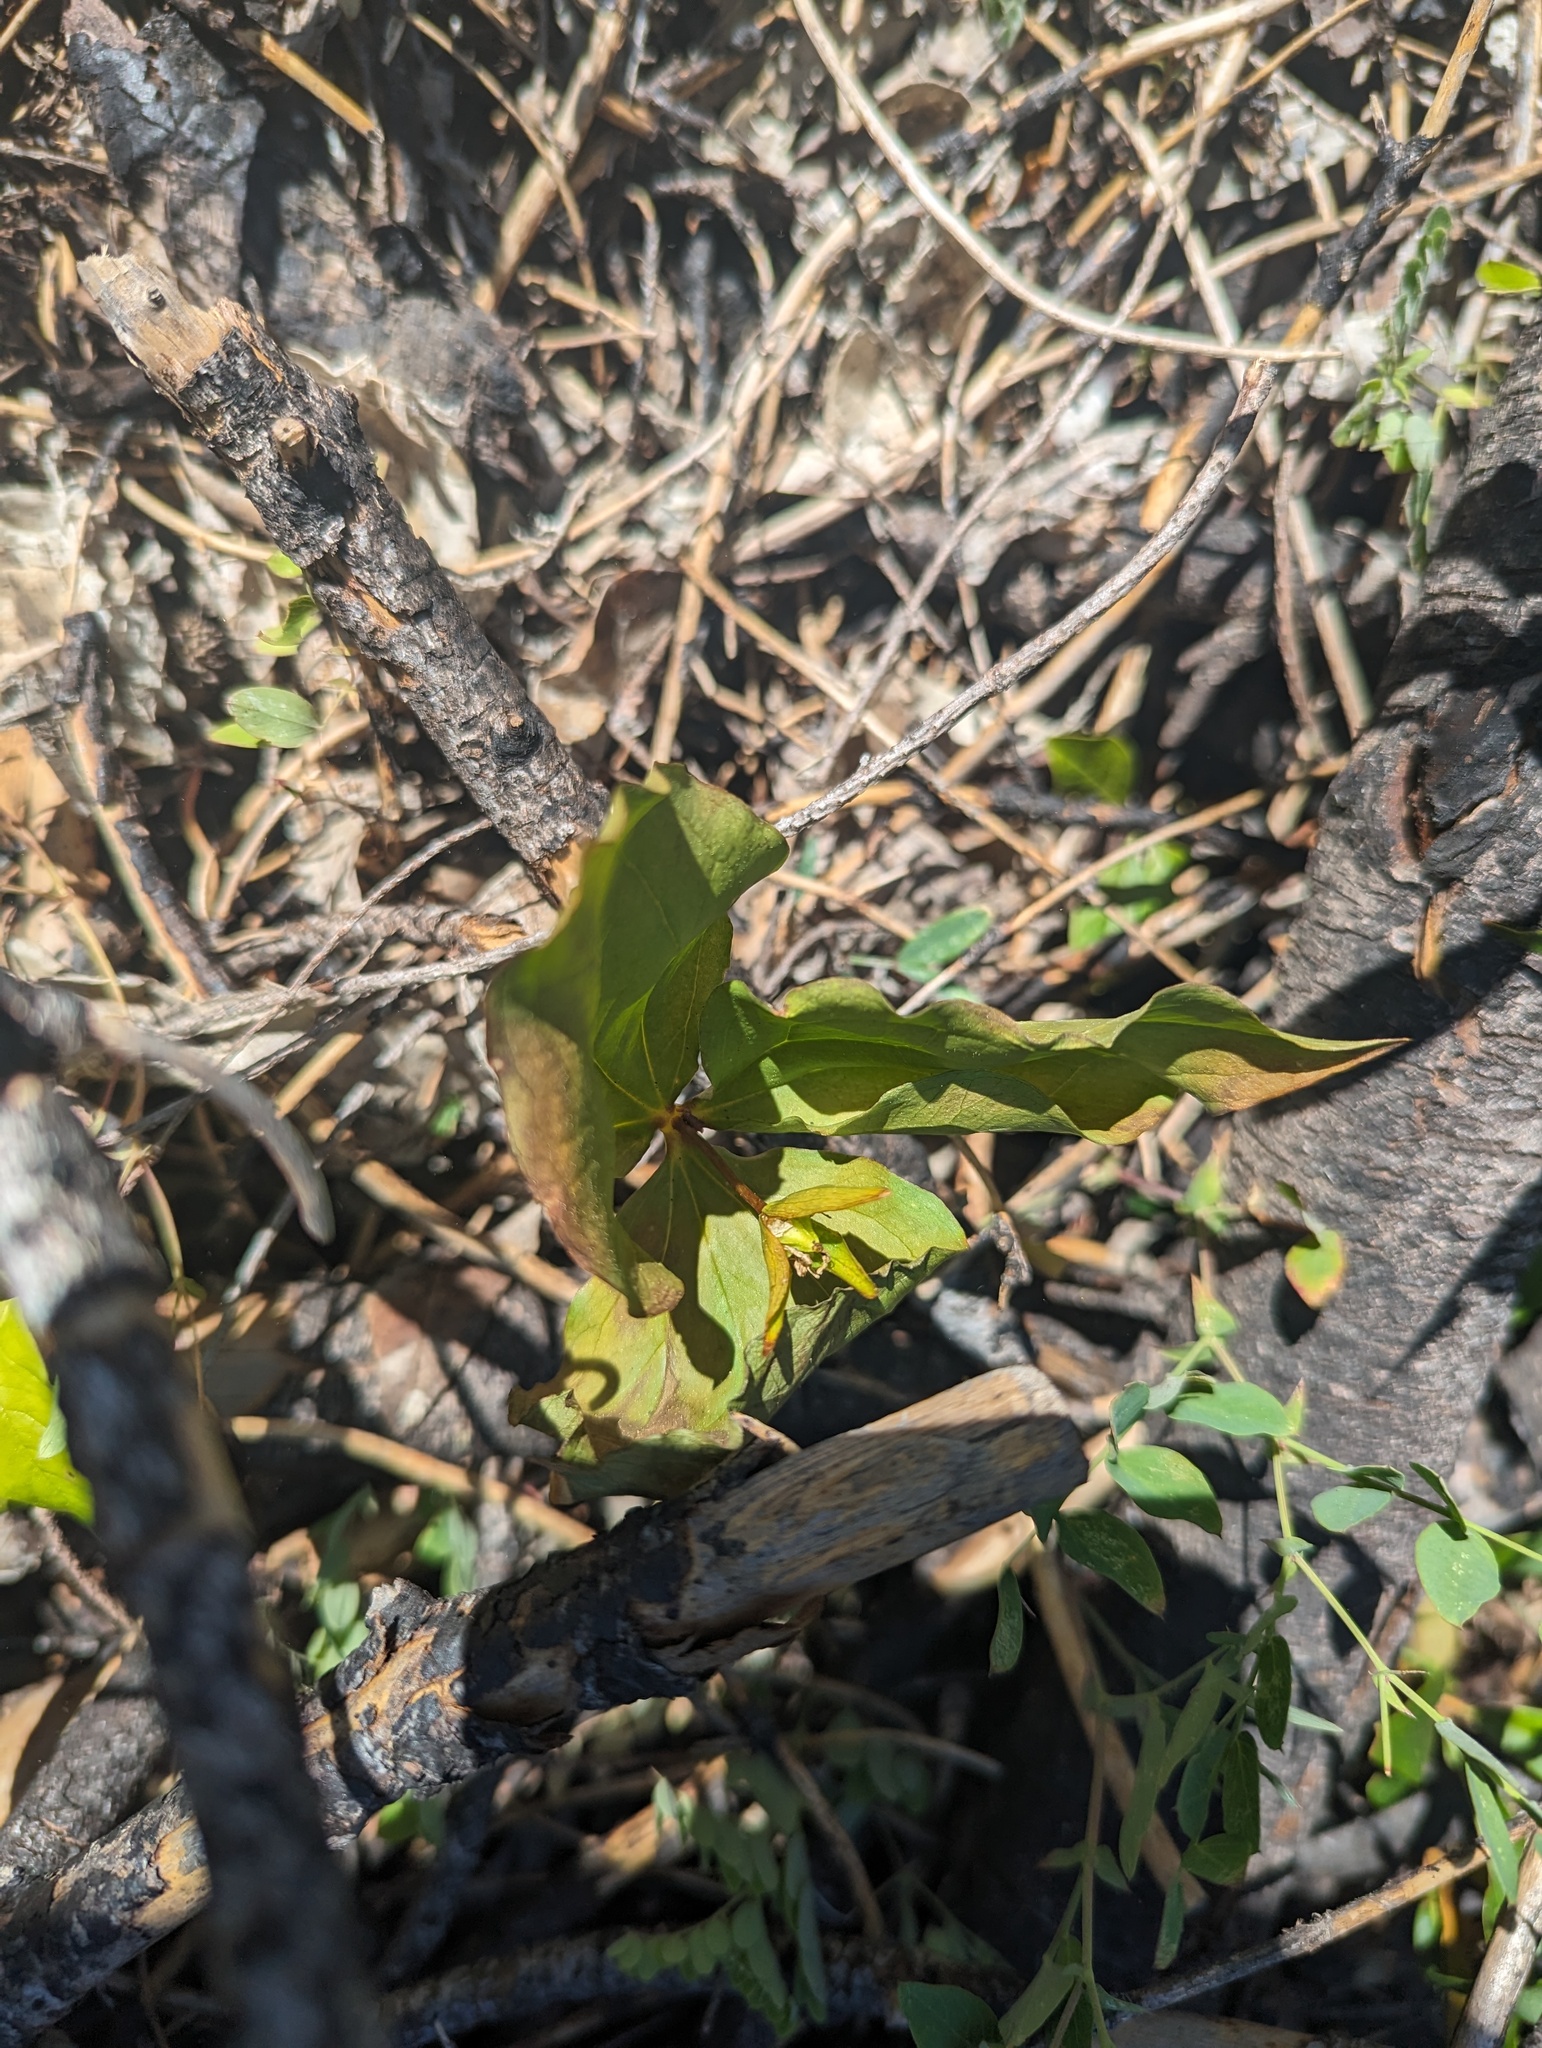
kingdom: Plantae
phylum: Tracheophyta
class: Liliopsida
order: Liliales
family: Melanthiaceae
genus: Trillium
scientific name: Trillium ovatum
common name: Pacific trillium
